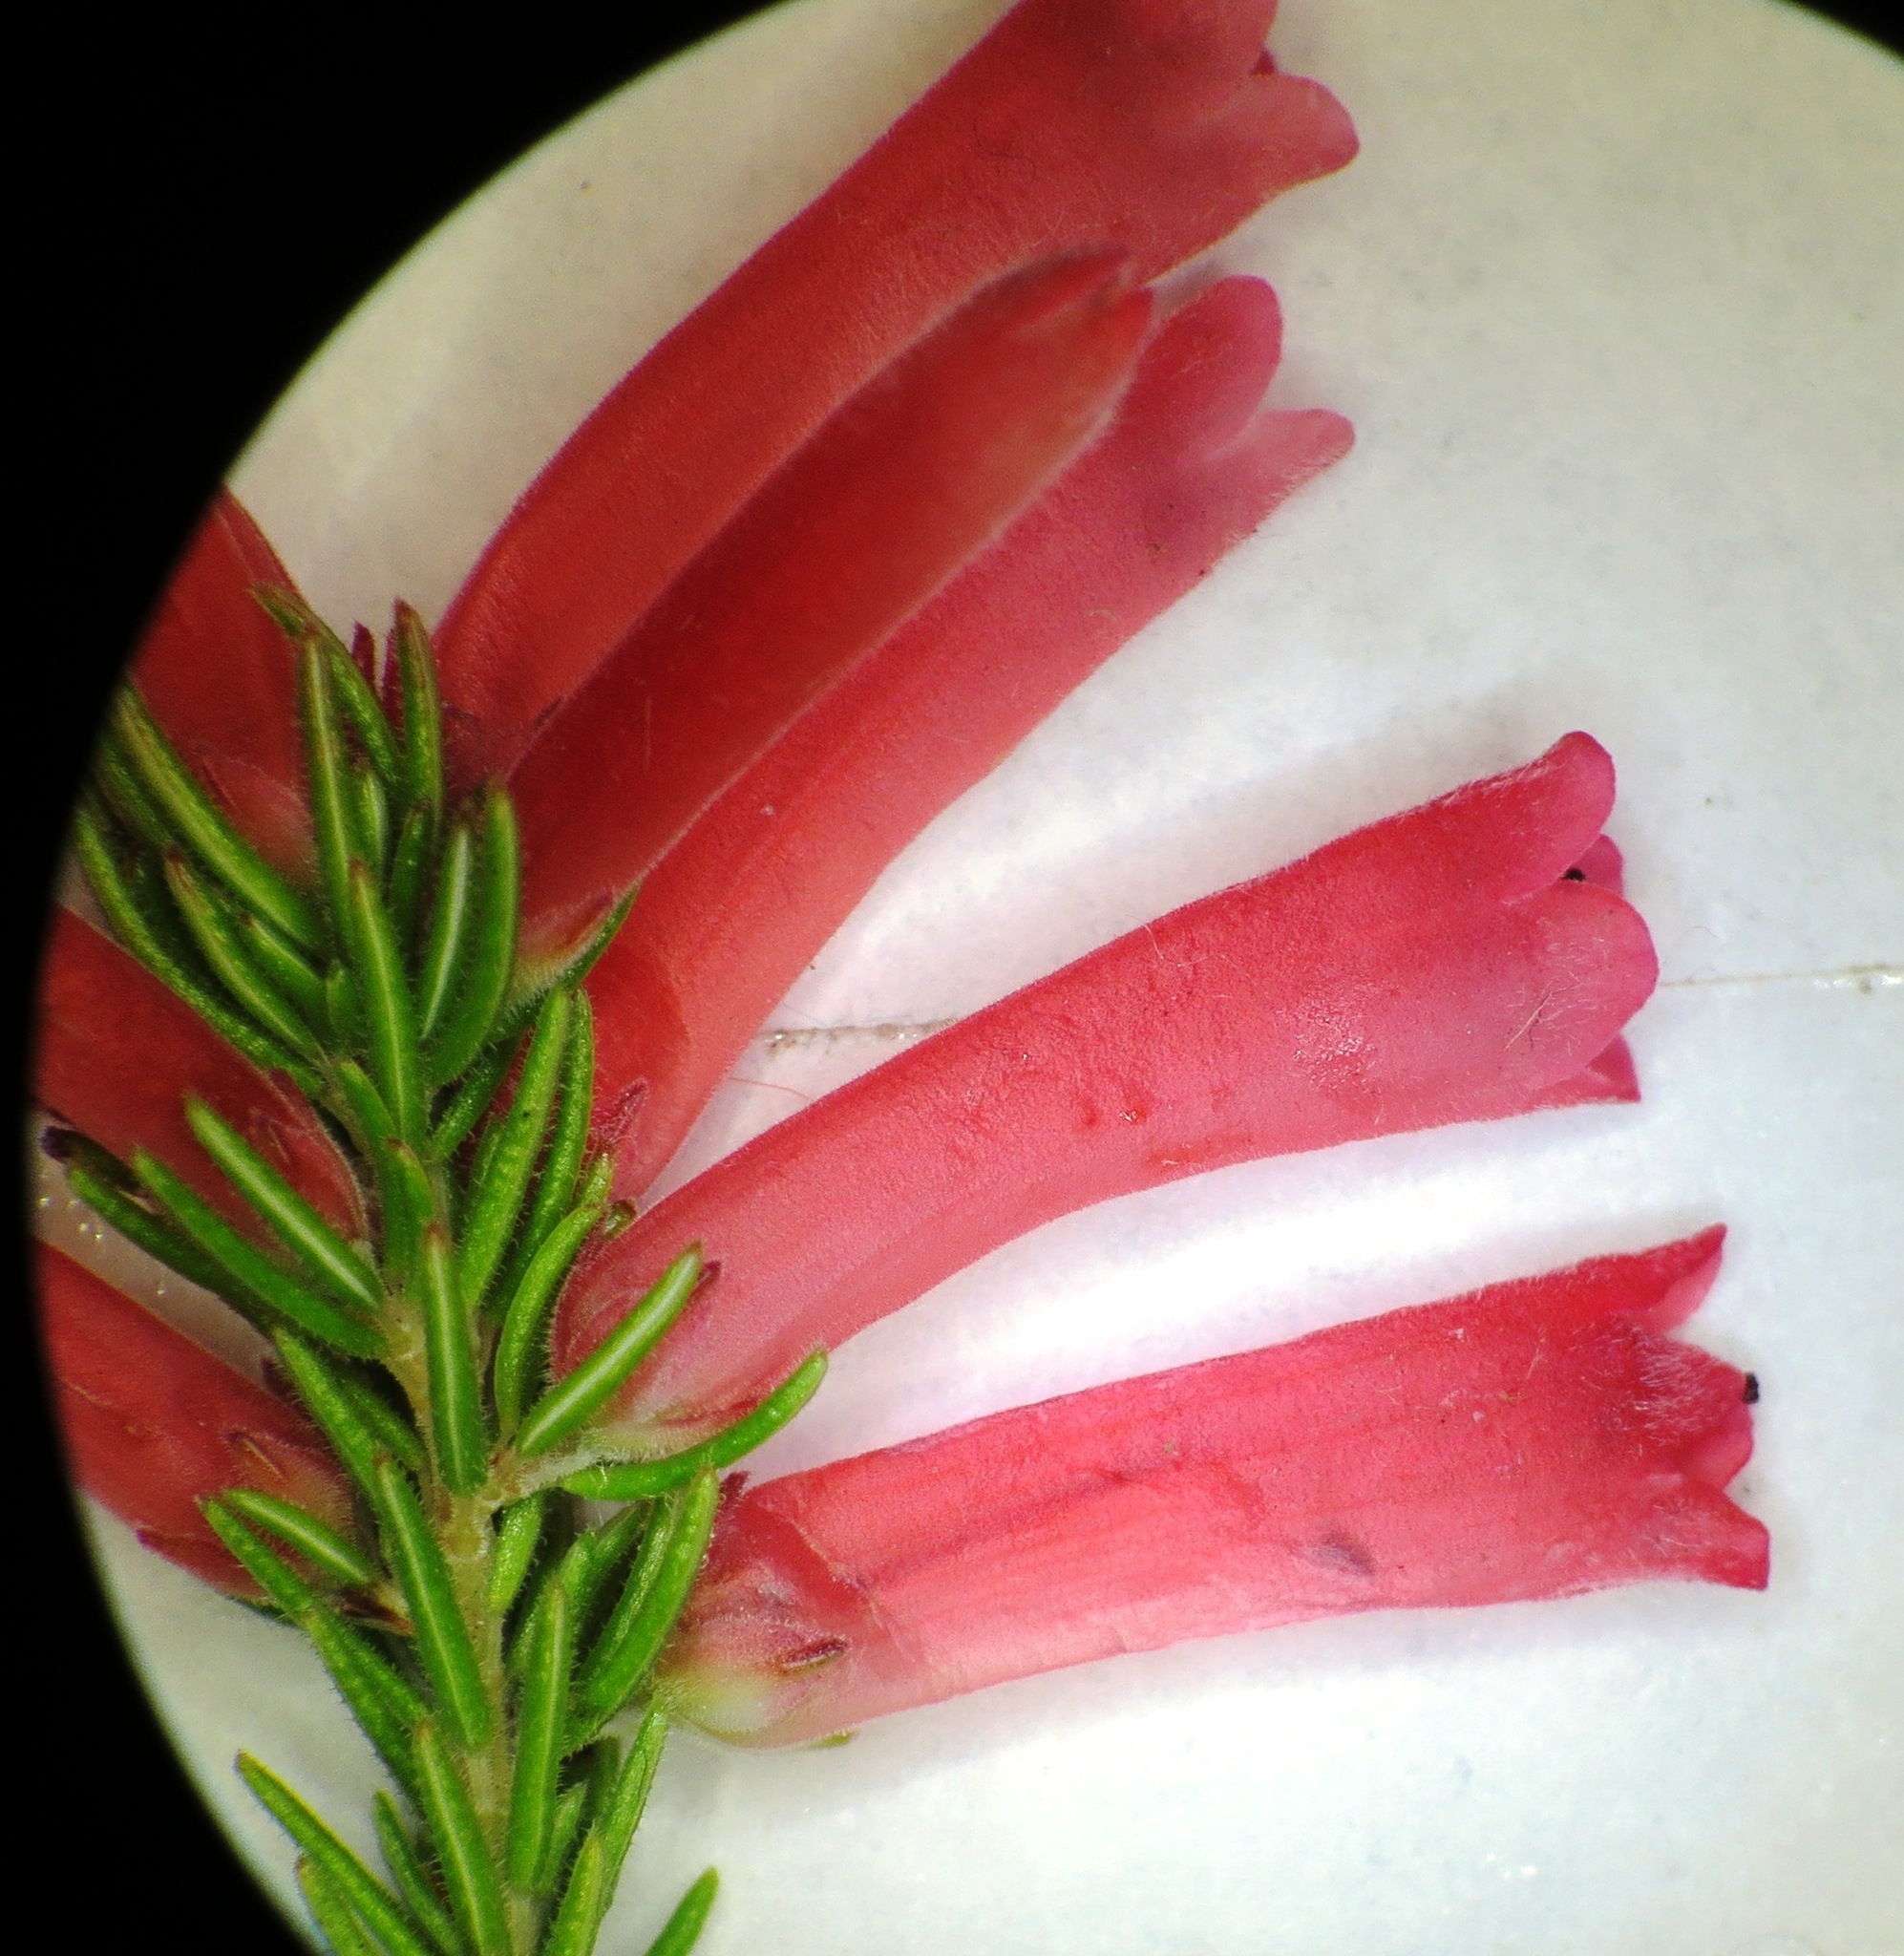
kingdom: Plantae
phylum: Tracheophyta
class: Magnoliopsida
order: Ericales
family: Ericaceae
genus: Erica
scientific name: Erica pillansii
